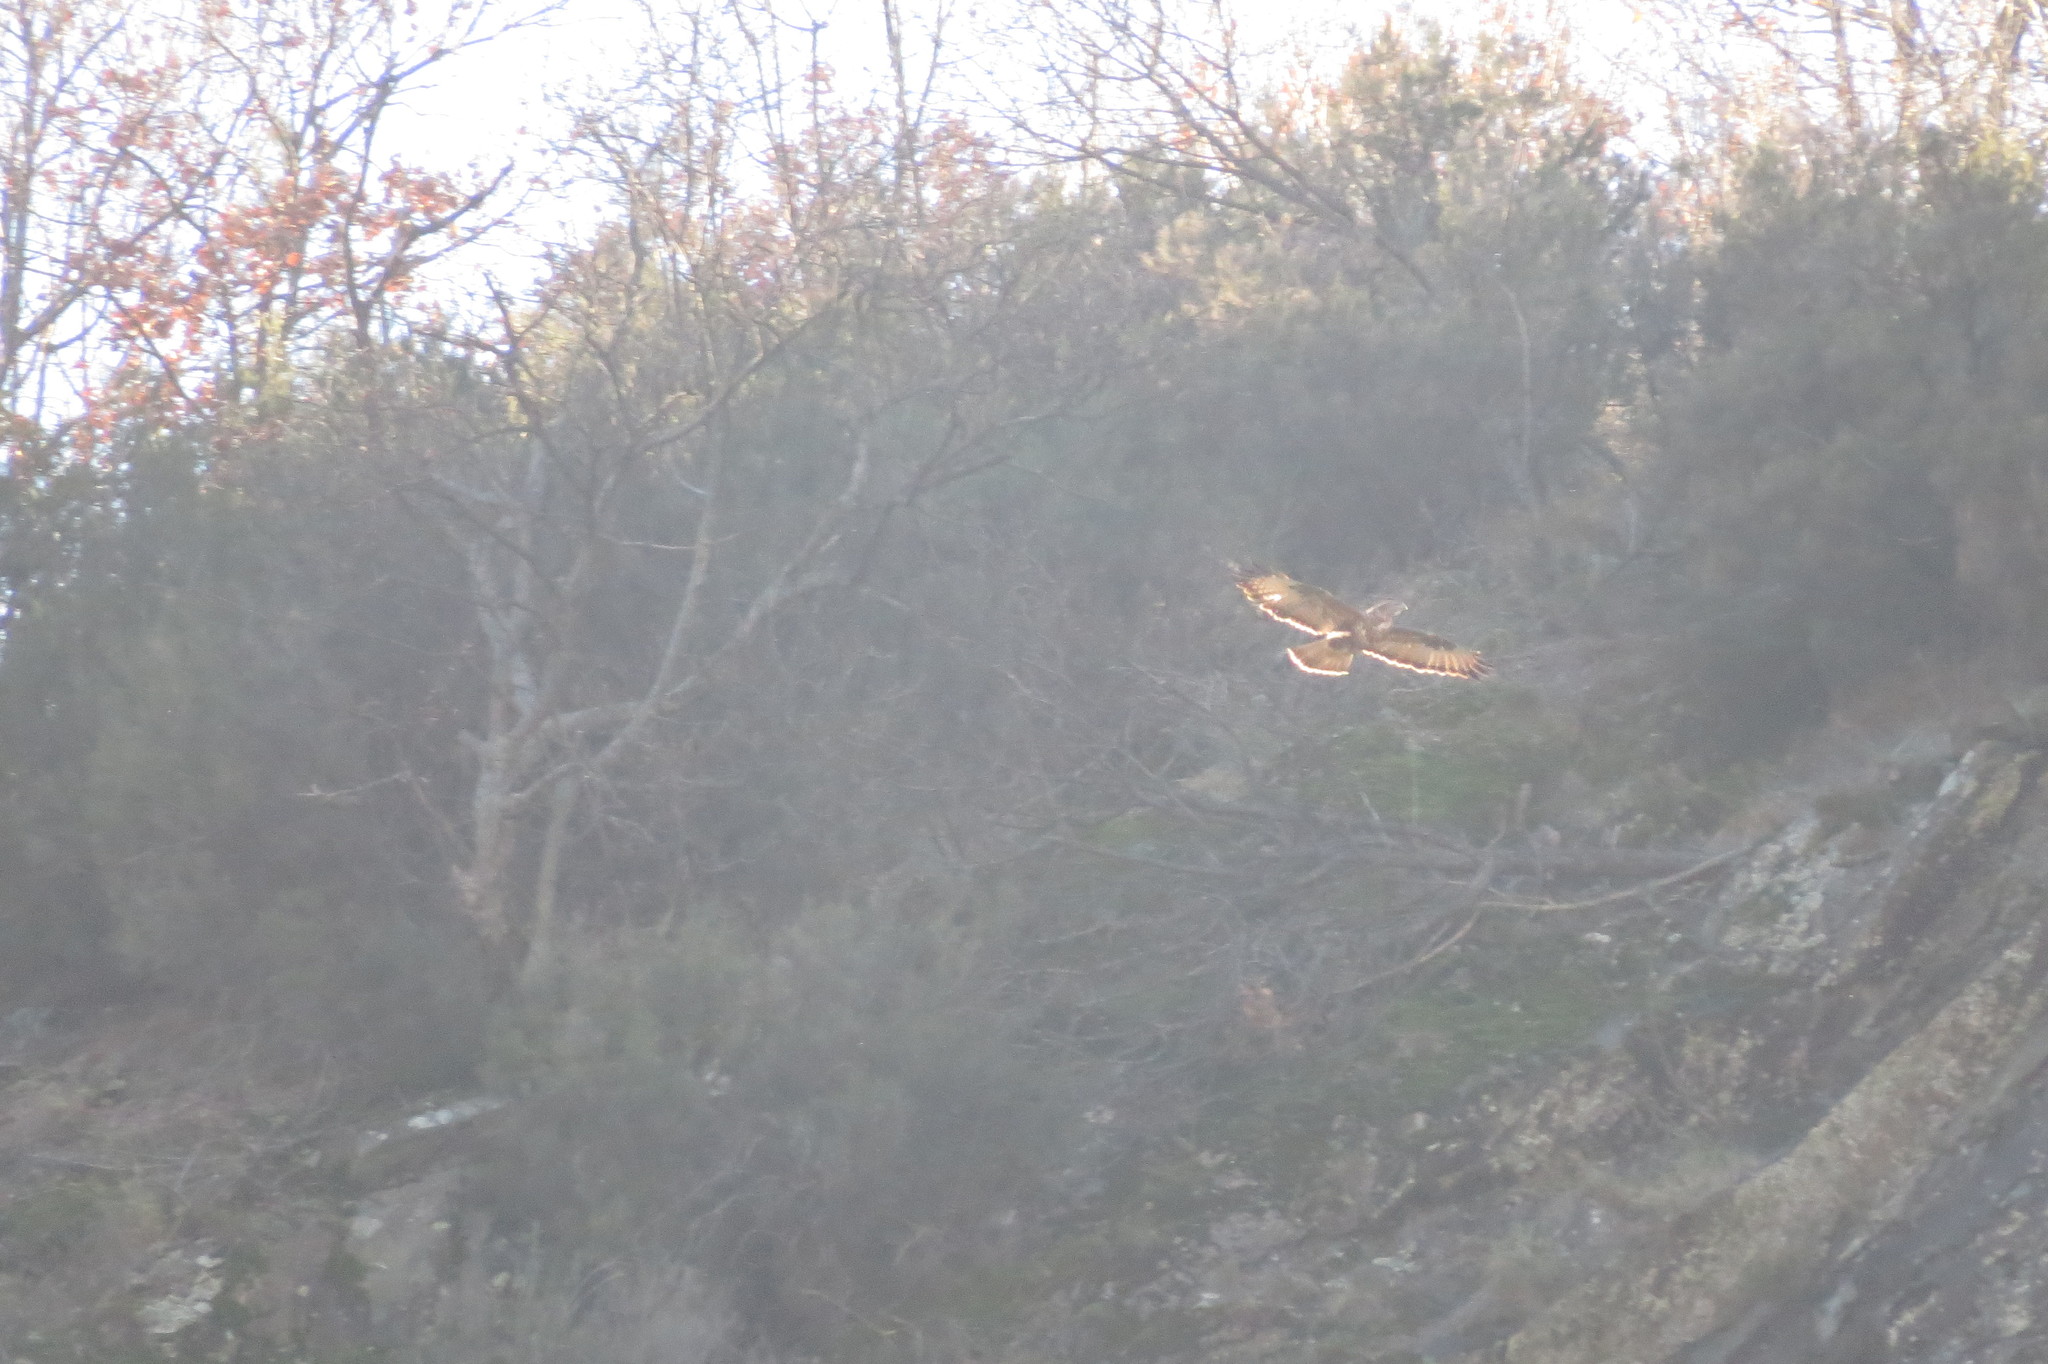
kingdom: Animalia
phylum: Chordata
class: Aves
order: Accipitriformes
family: Accipitridae
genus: Buteo
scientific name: Buteo buteo
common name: Common buzzard
